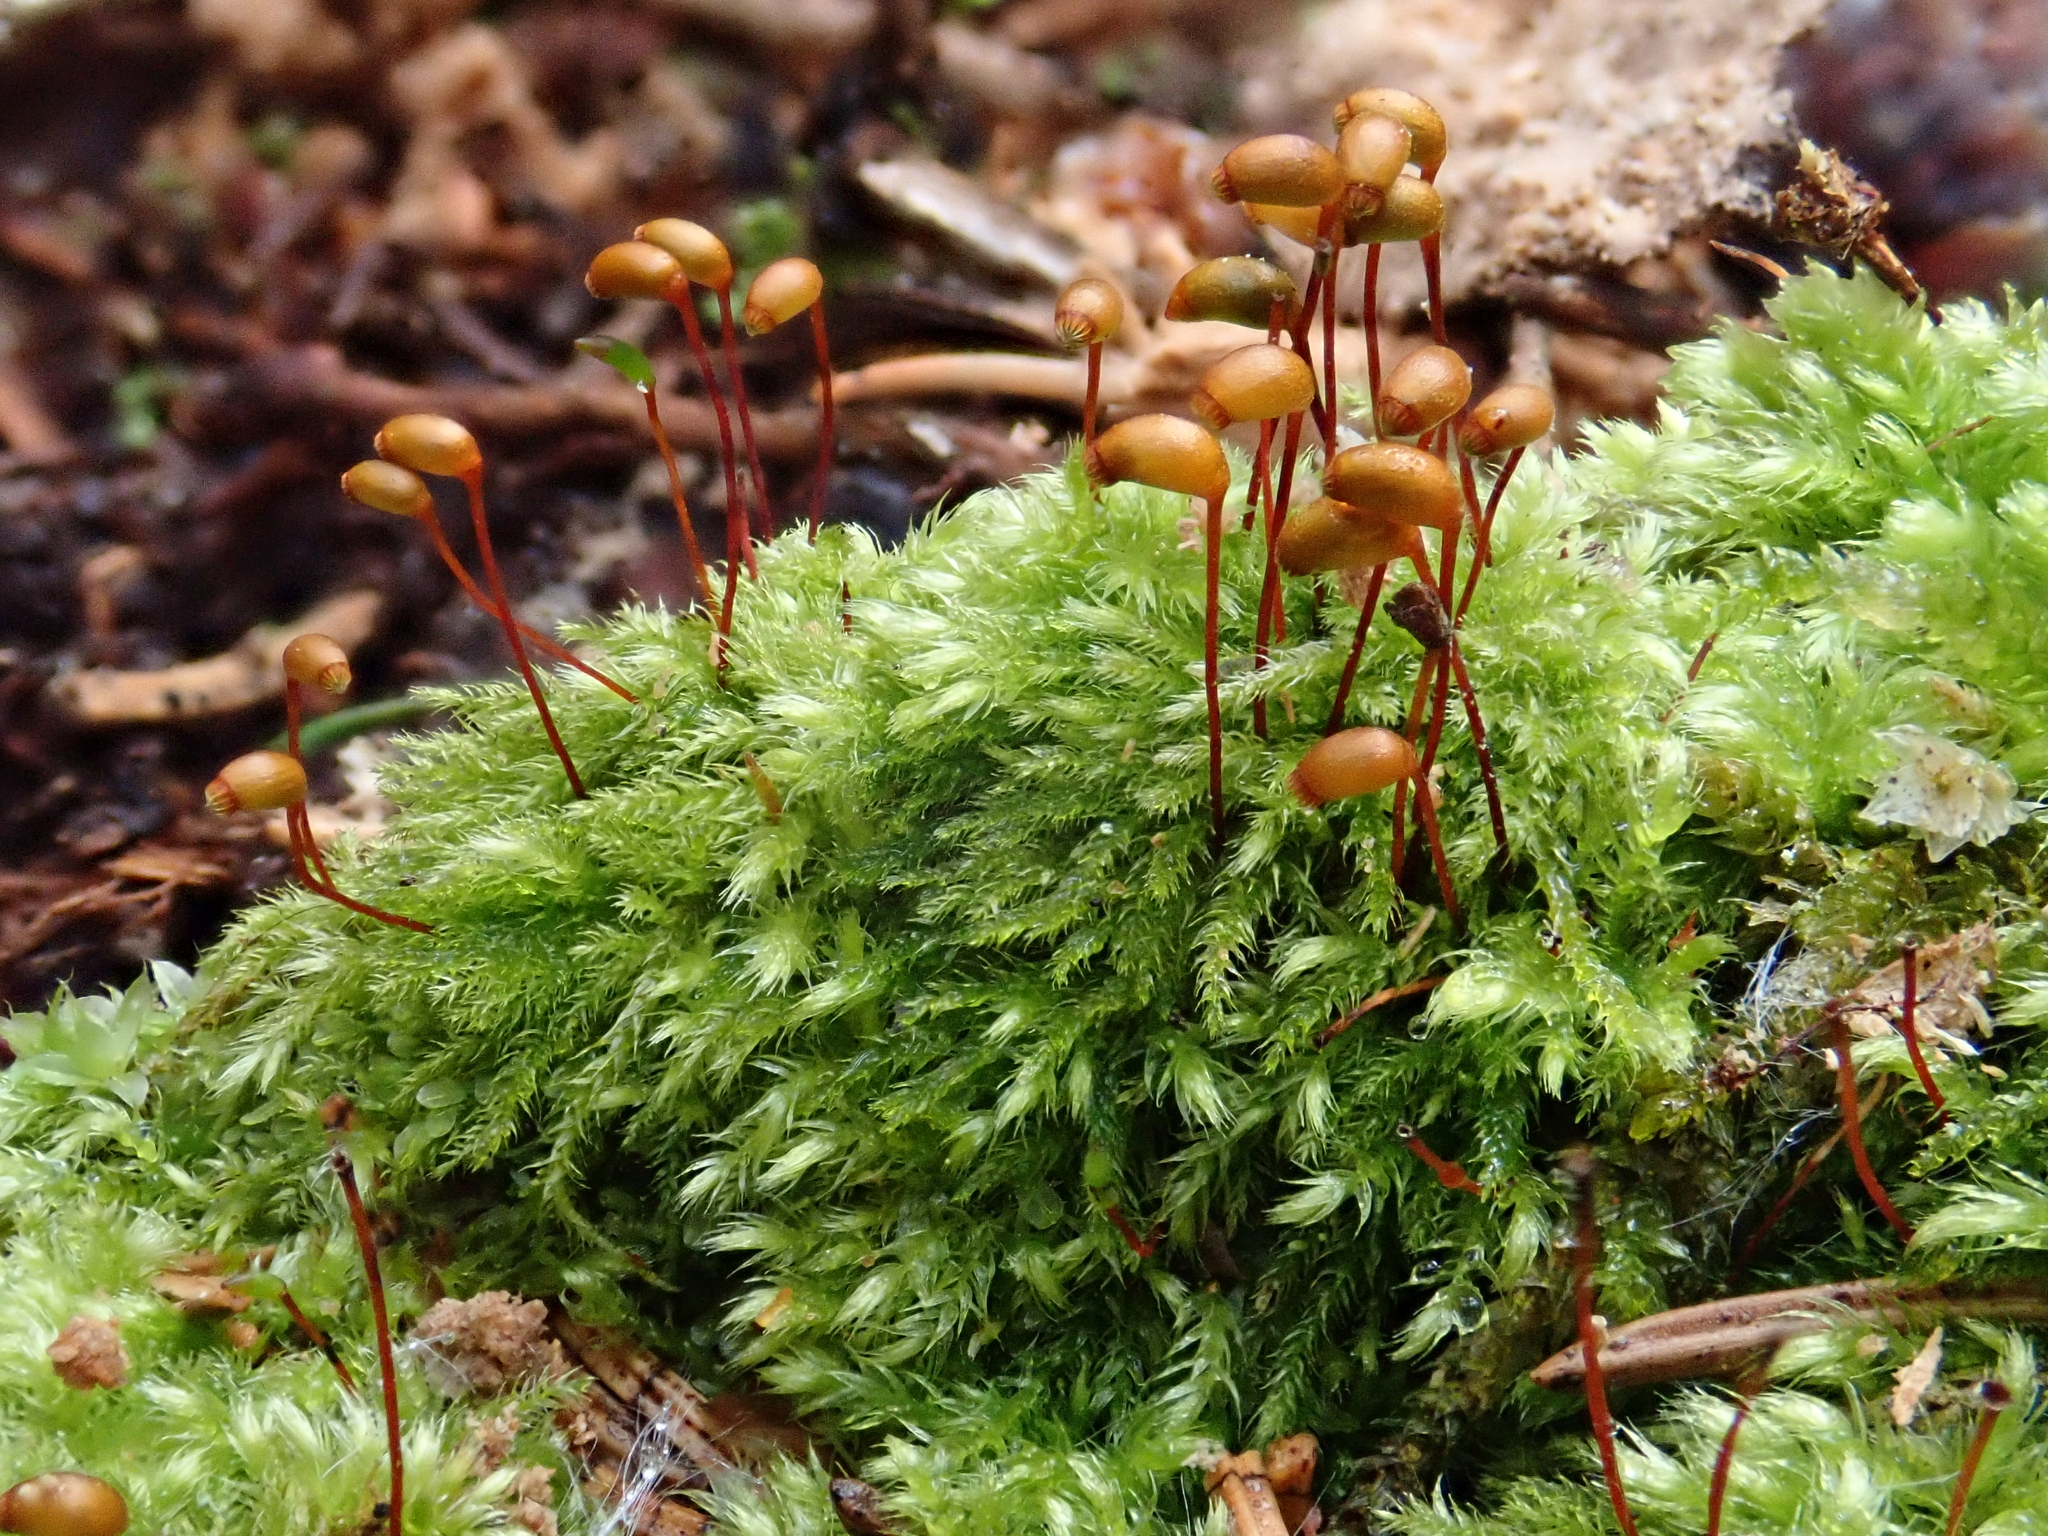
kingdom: Plantae
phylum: Bryophyta
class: Bryopsida
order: Hypnales
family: Brachytheciaceae
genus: Brachytheciastrum
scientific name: Brachytheciastrum velutinum
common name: Velvet feather-moss
